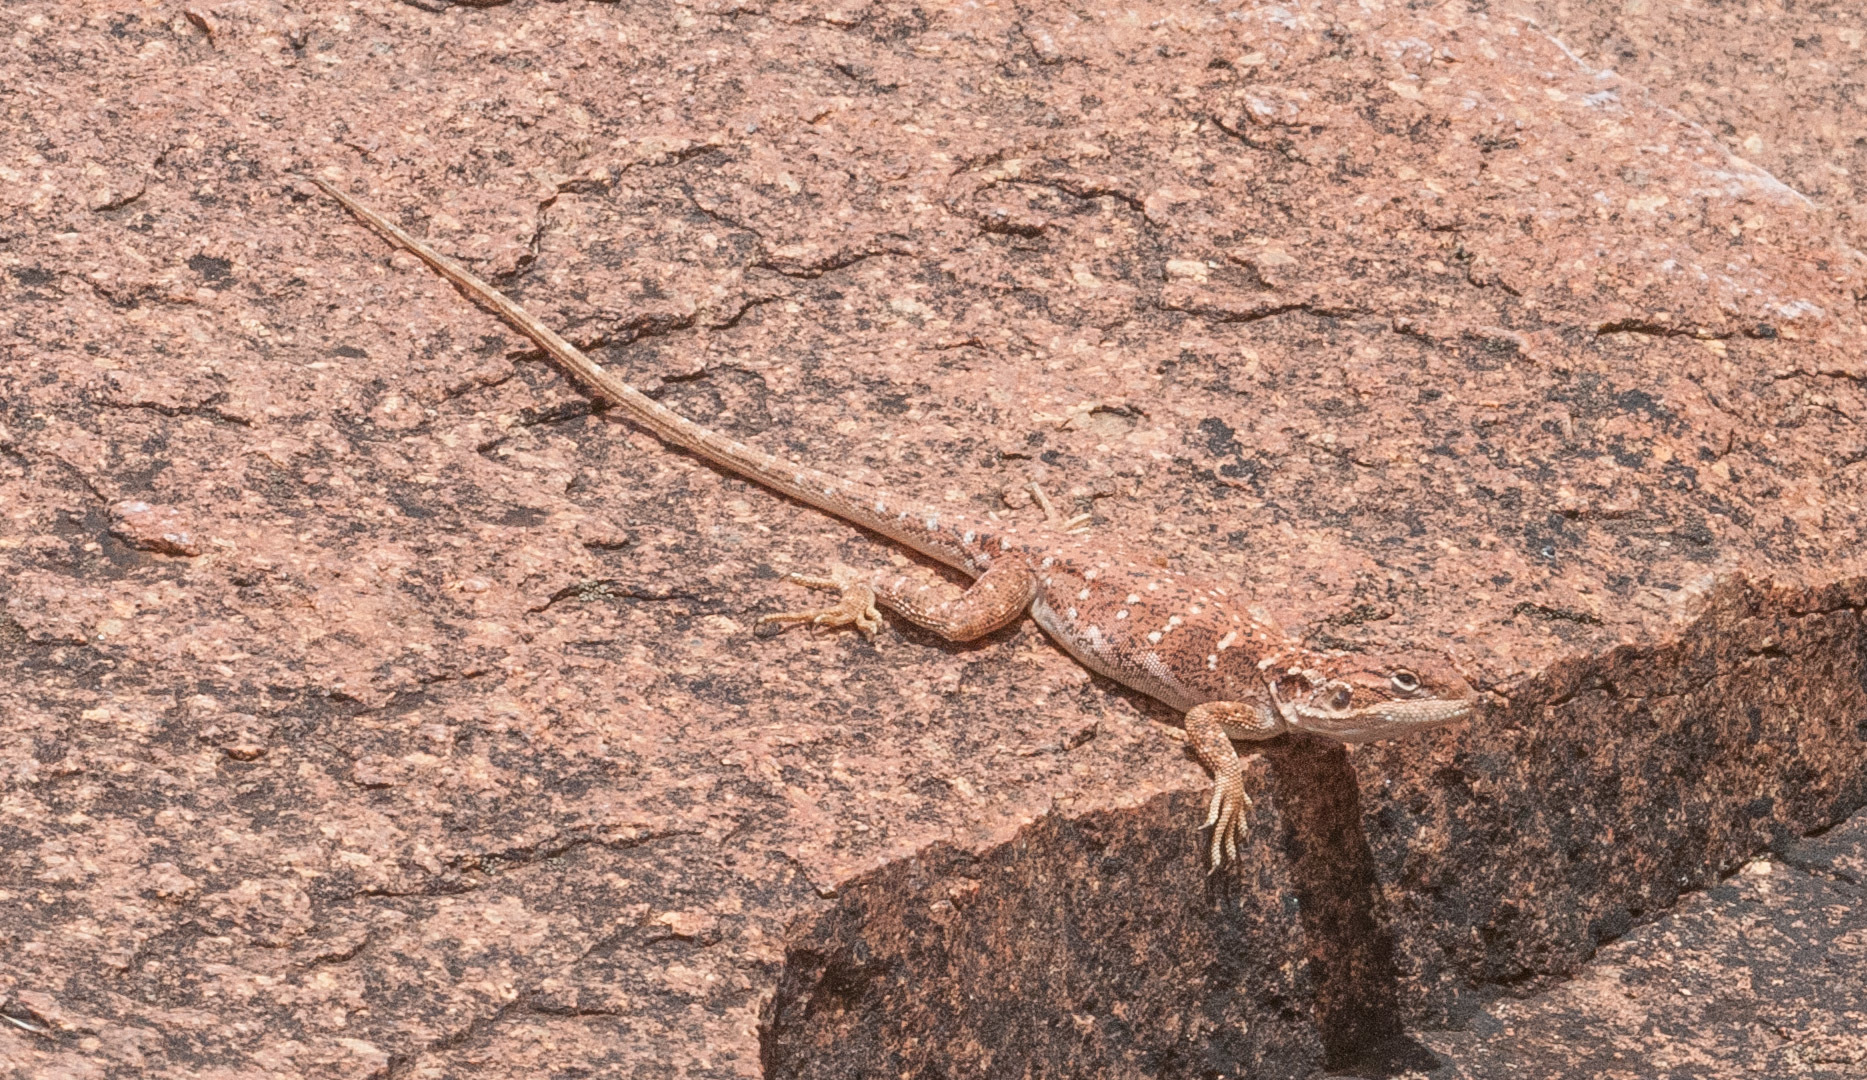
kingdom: Animalia
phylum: Chordata
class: Squamata
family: Agamidae
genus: Ctenophorus
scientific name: Ctenophorus fionni
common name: Peninsula crevis-dragon
